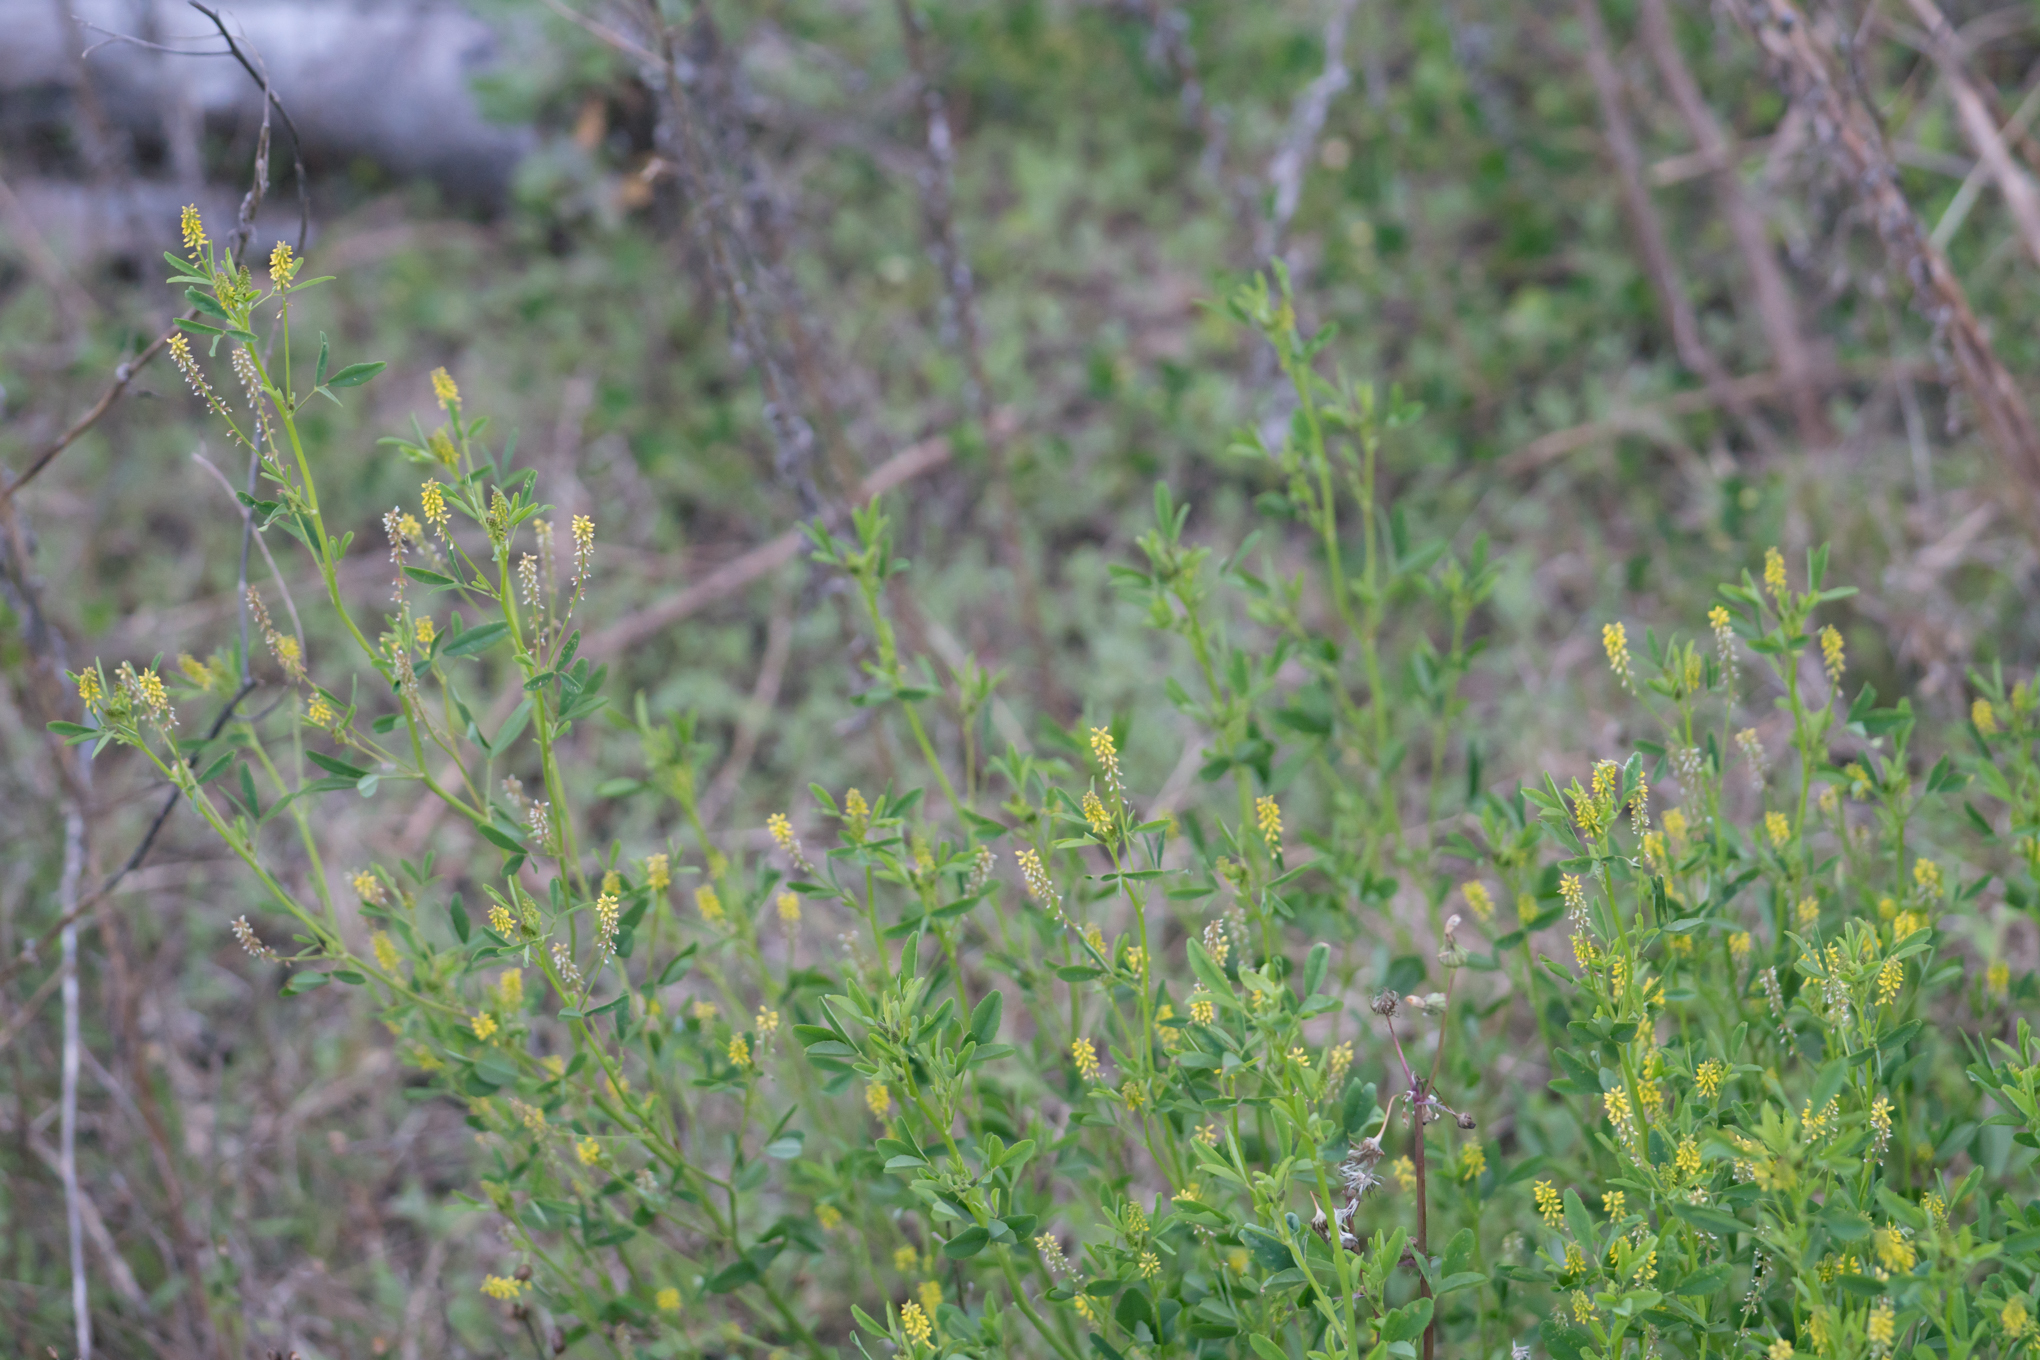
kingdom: Plantae
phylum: Tracheophyta
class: Magnoliopsida
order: Fabales
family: Fabaceae
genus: Melilotus
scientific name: Melilotus indicus
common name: Small melilot
